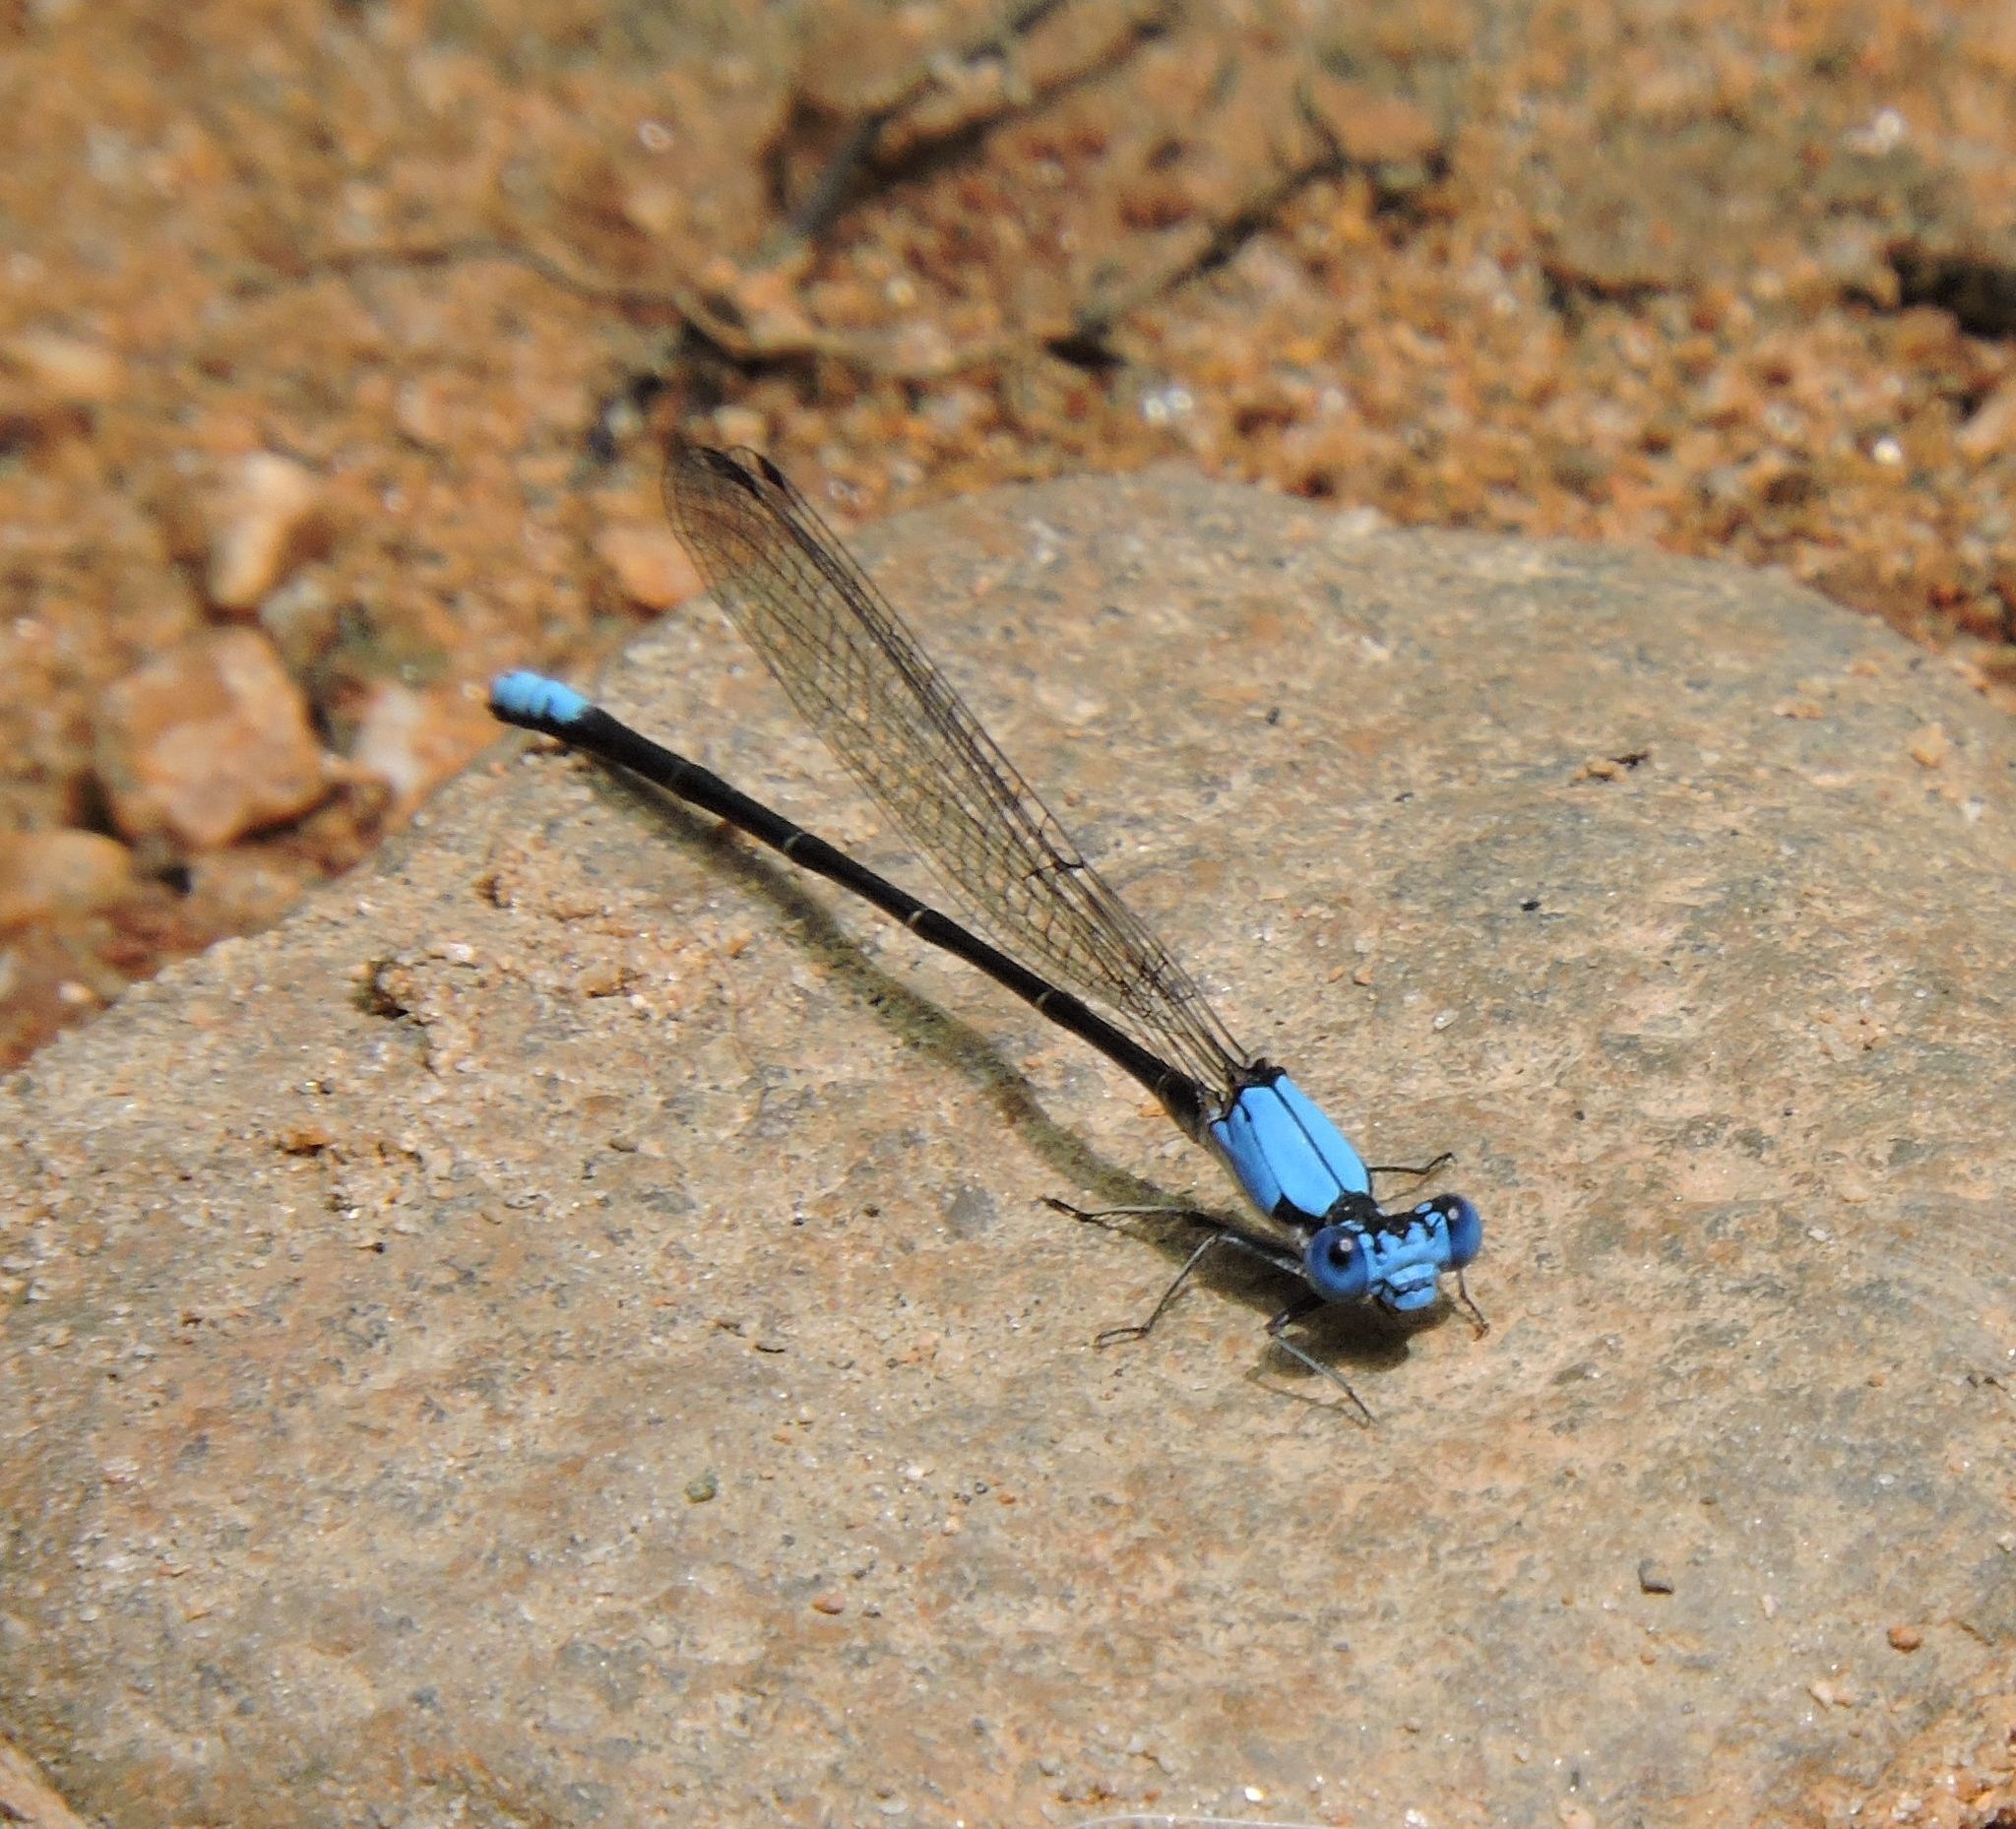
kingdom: Animalia
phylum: Arthropoda
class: Insecta
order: Odonata
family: Coenagrionidae
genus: Argia
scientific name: Argia apicalis
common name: Blue-fronted dancer
